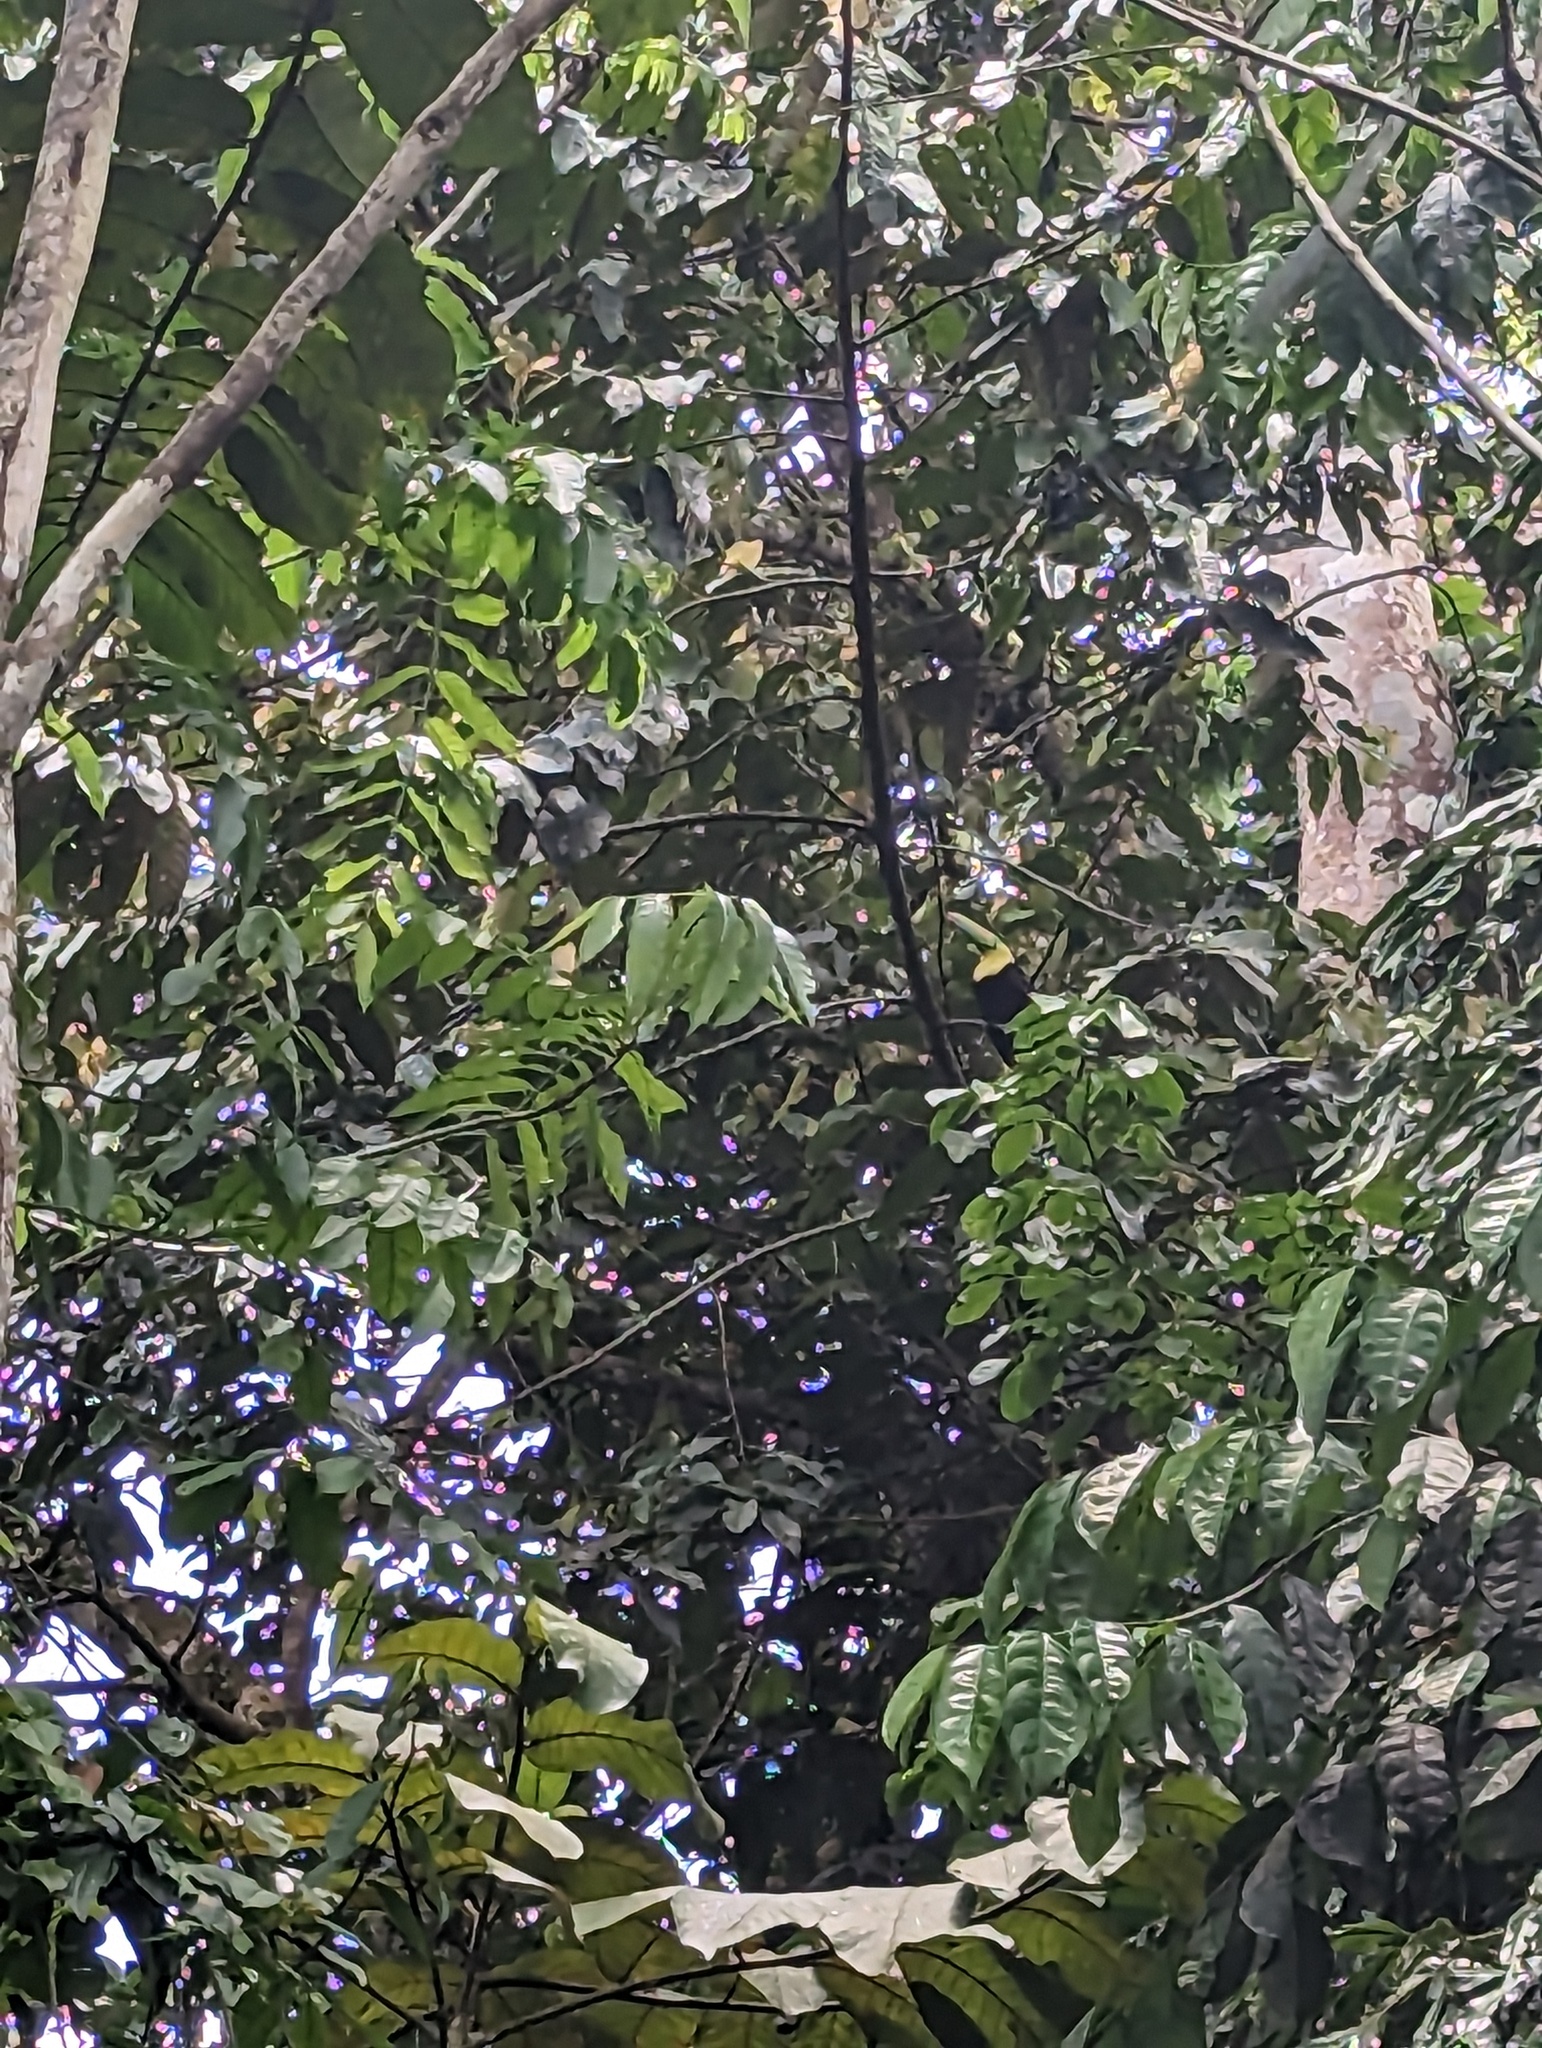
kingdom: Animalia
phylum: Chordata
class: Aves
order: Piciformes
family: Ramphastidae
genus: Ramphastos
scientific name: Ramphastos sulfuratus
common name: Keel-billed toucan
